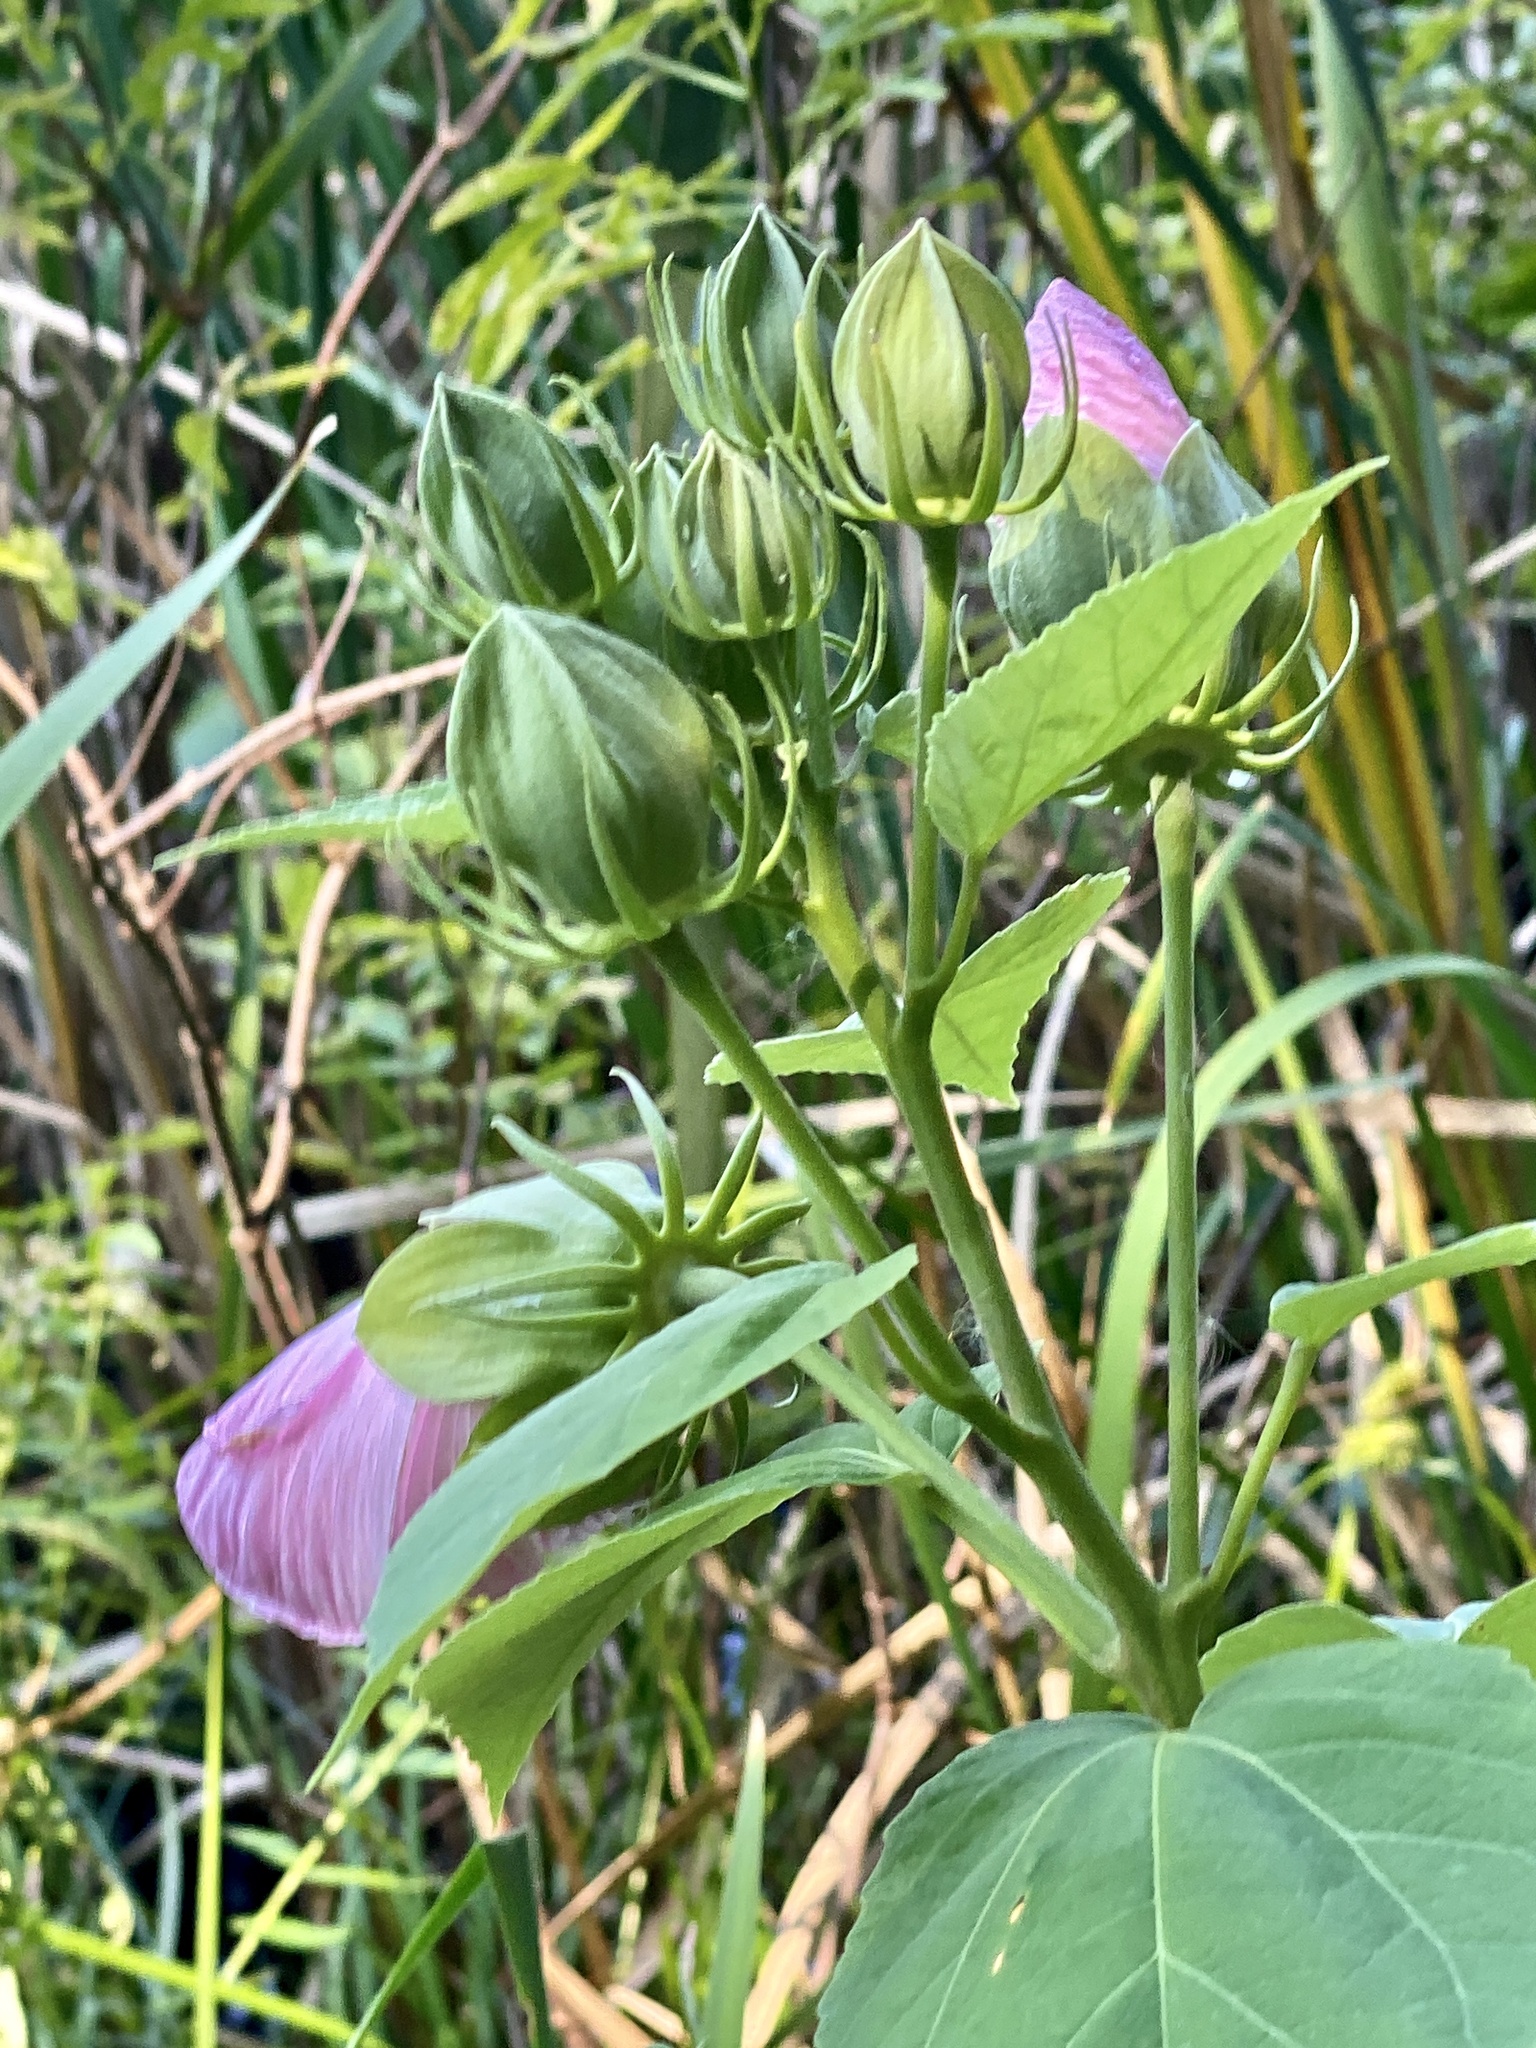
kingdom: Plantae
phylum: Tracheophyta
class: Magnoliopsida
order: Malvales
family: Malvaceae
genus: Hibiscus
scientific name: Hibiscus moscheutos
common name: Common rose-mallow
